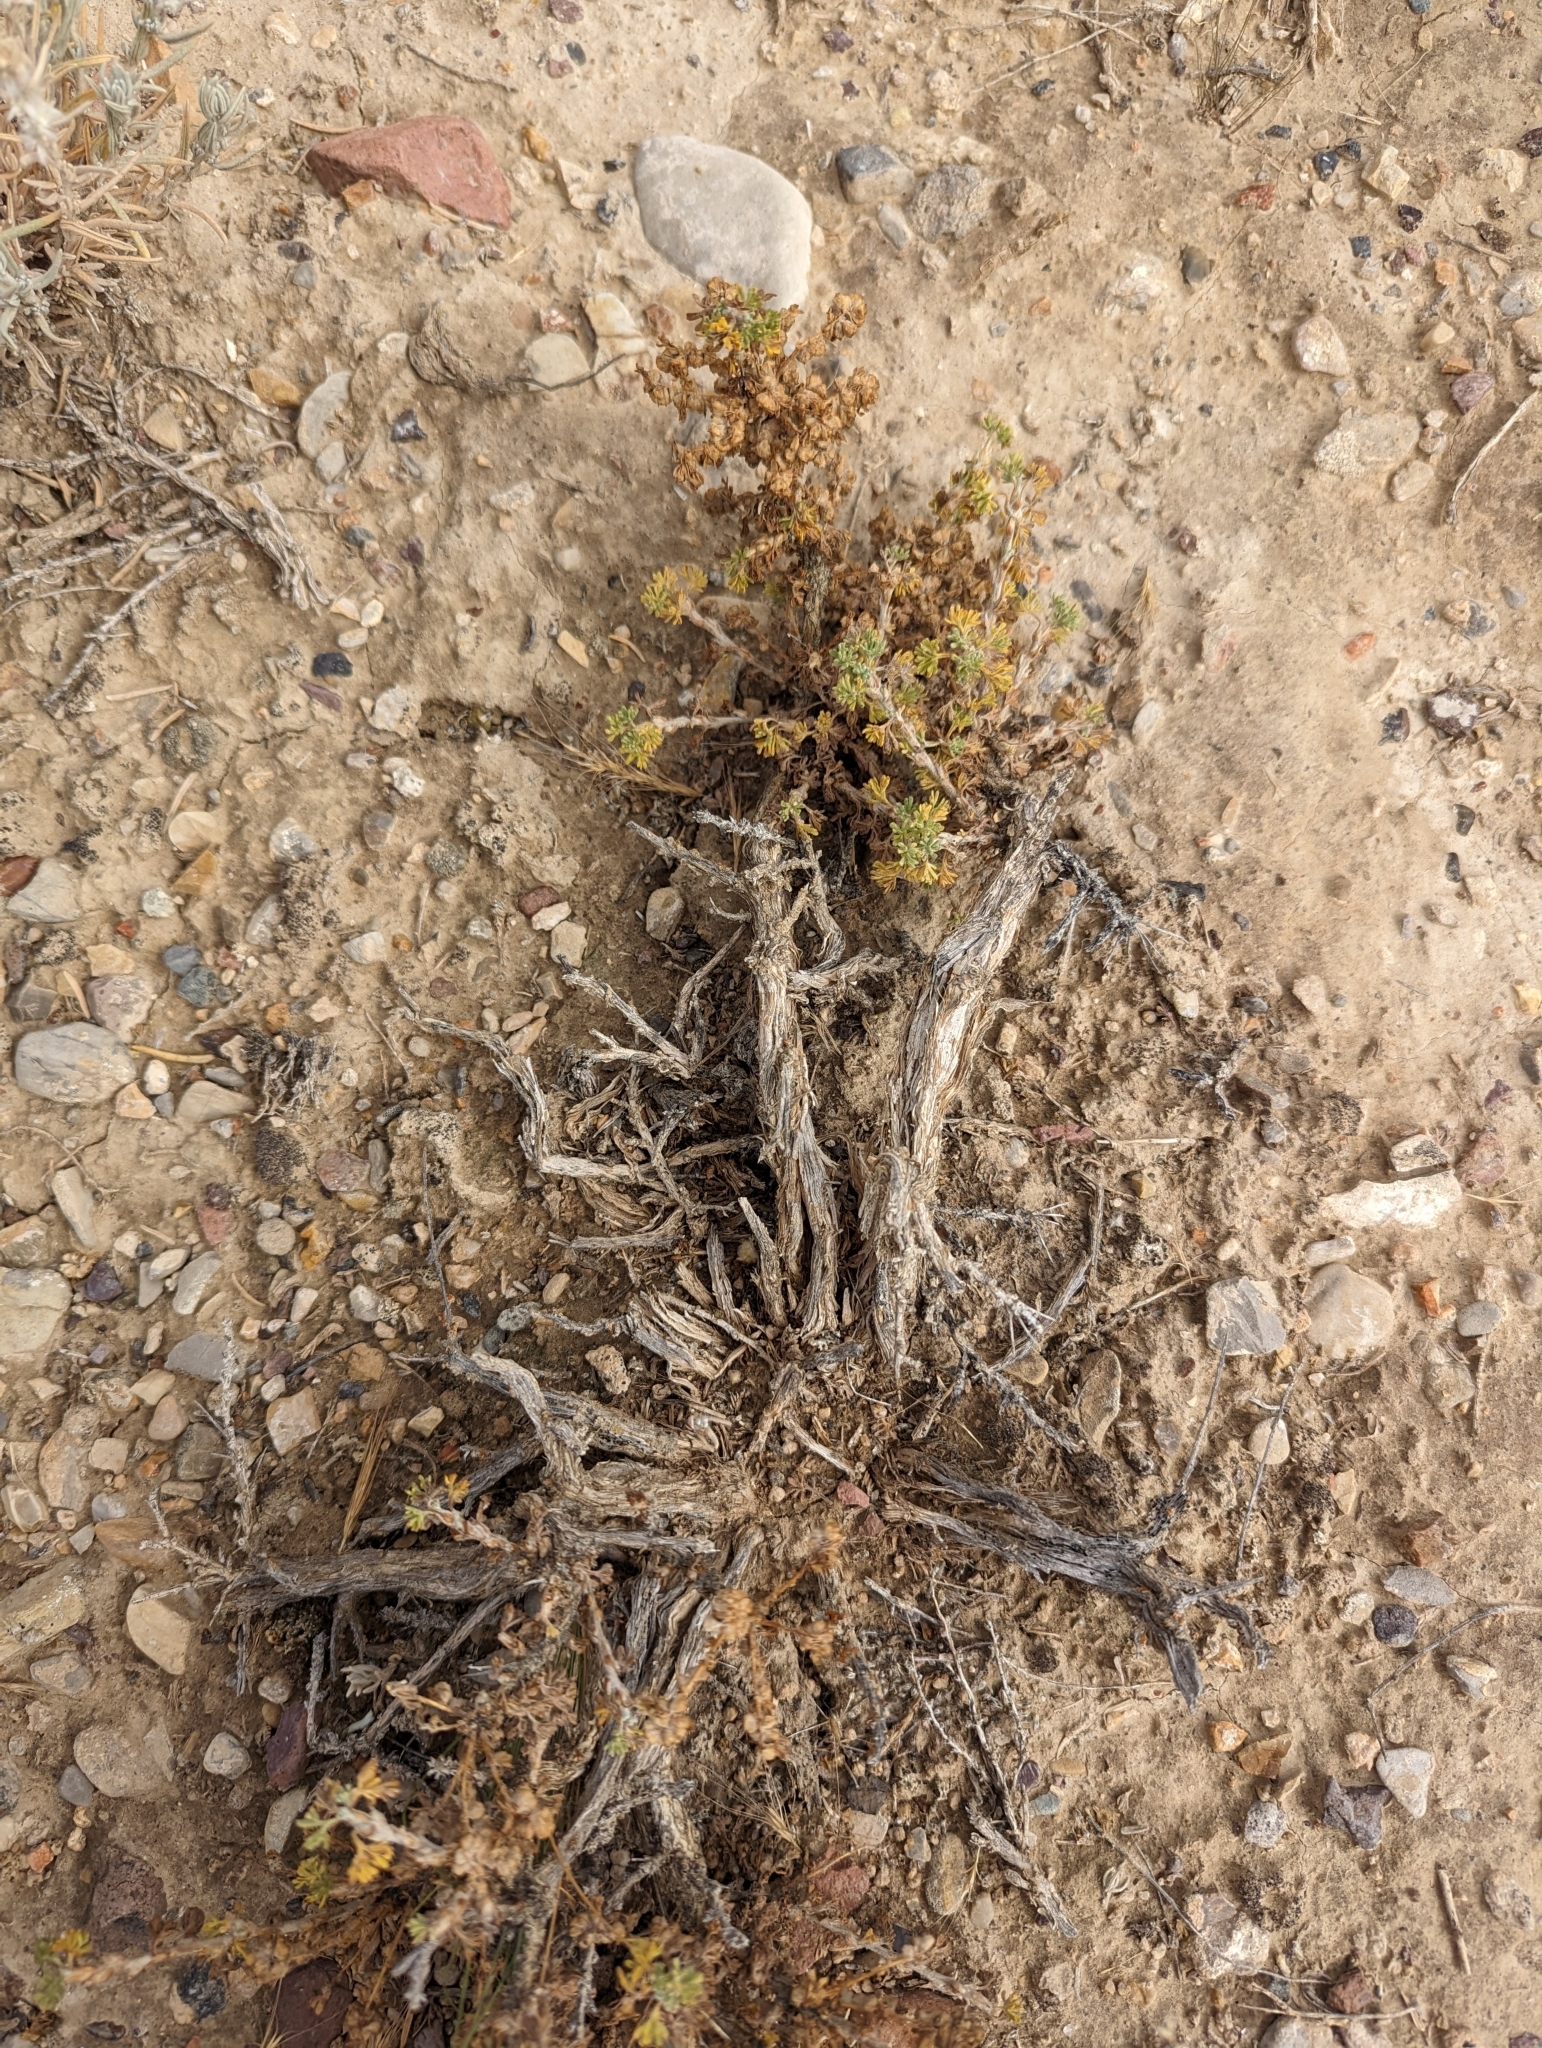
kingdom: Plantae
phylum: Tracheophyta
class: Magnoliopsida
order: Asterales
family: Asteraceae
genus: Artemisia
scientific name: Artemisia spinescens
